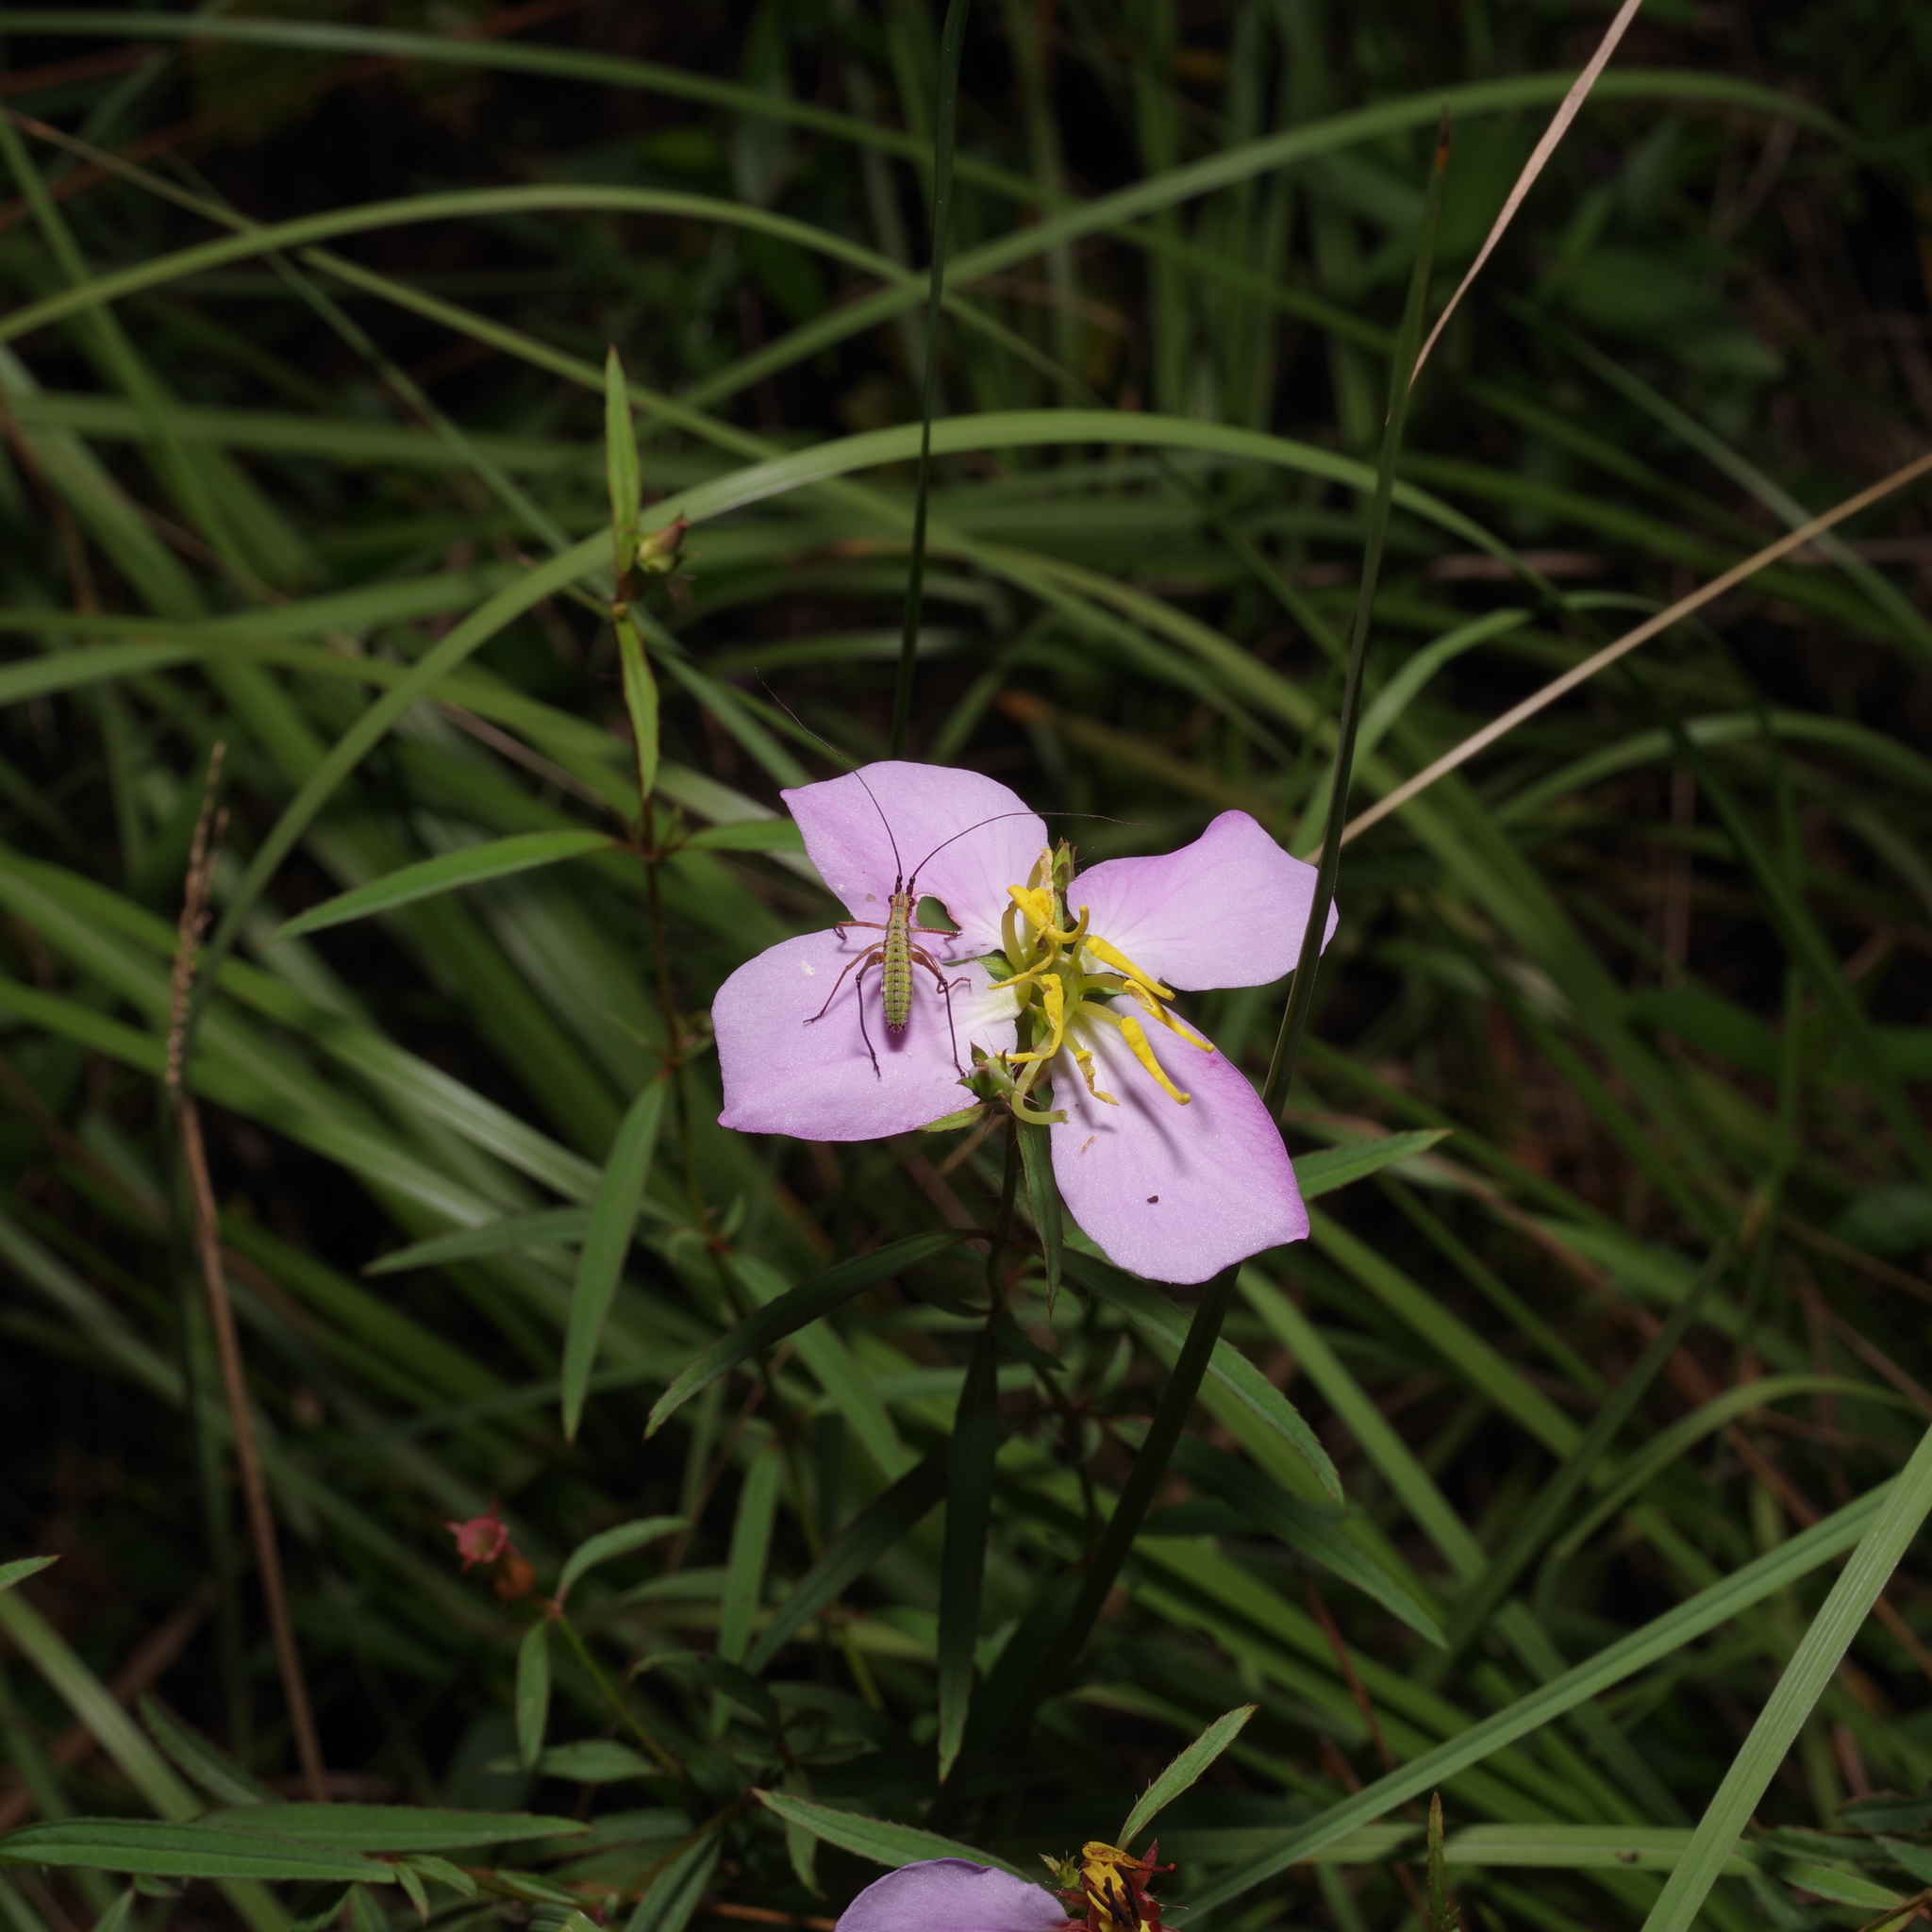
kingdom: Plantae
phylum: Tracheophyta
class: Magnoliopsida
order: Myrtales
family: Melastomataceae
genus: Rhexia
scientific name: Rhexia mariana
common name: Dull meadow-pitcher
